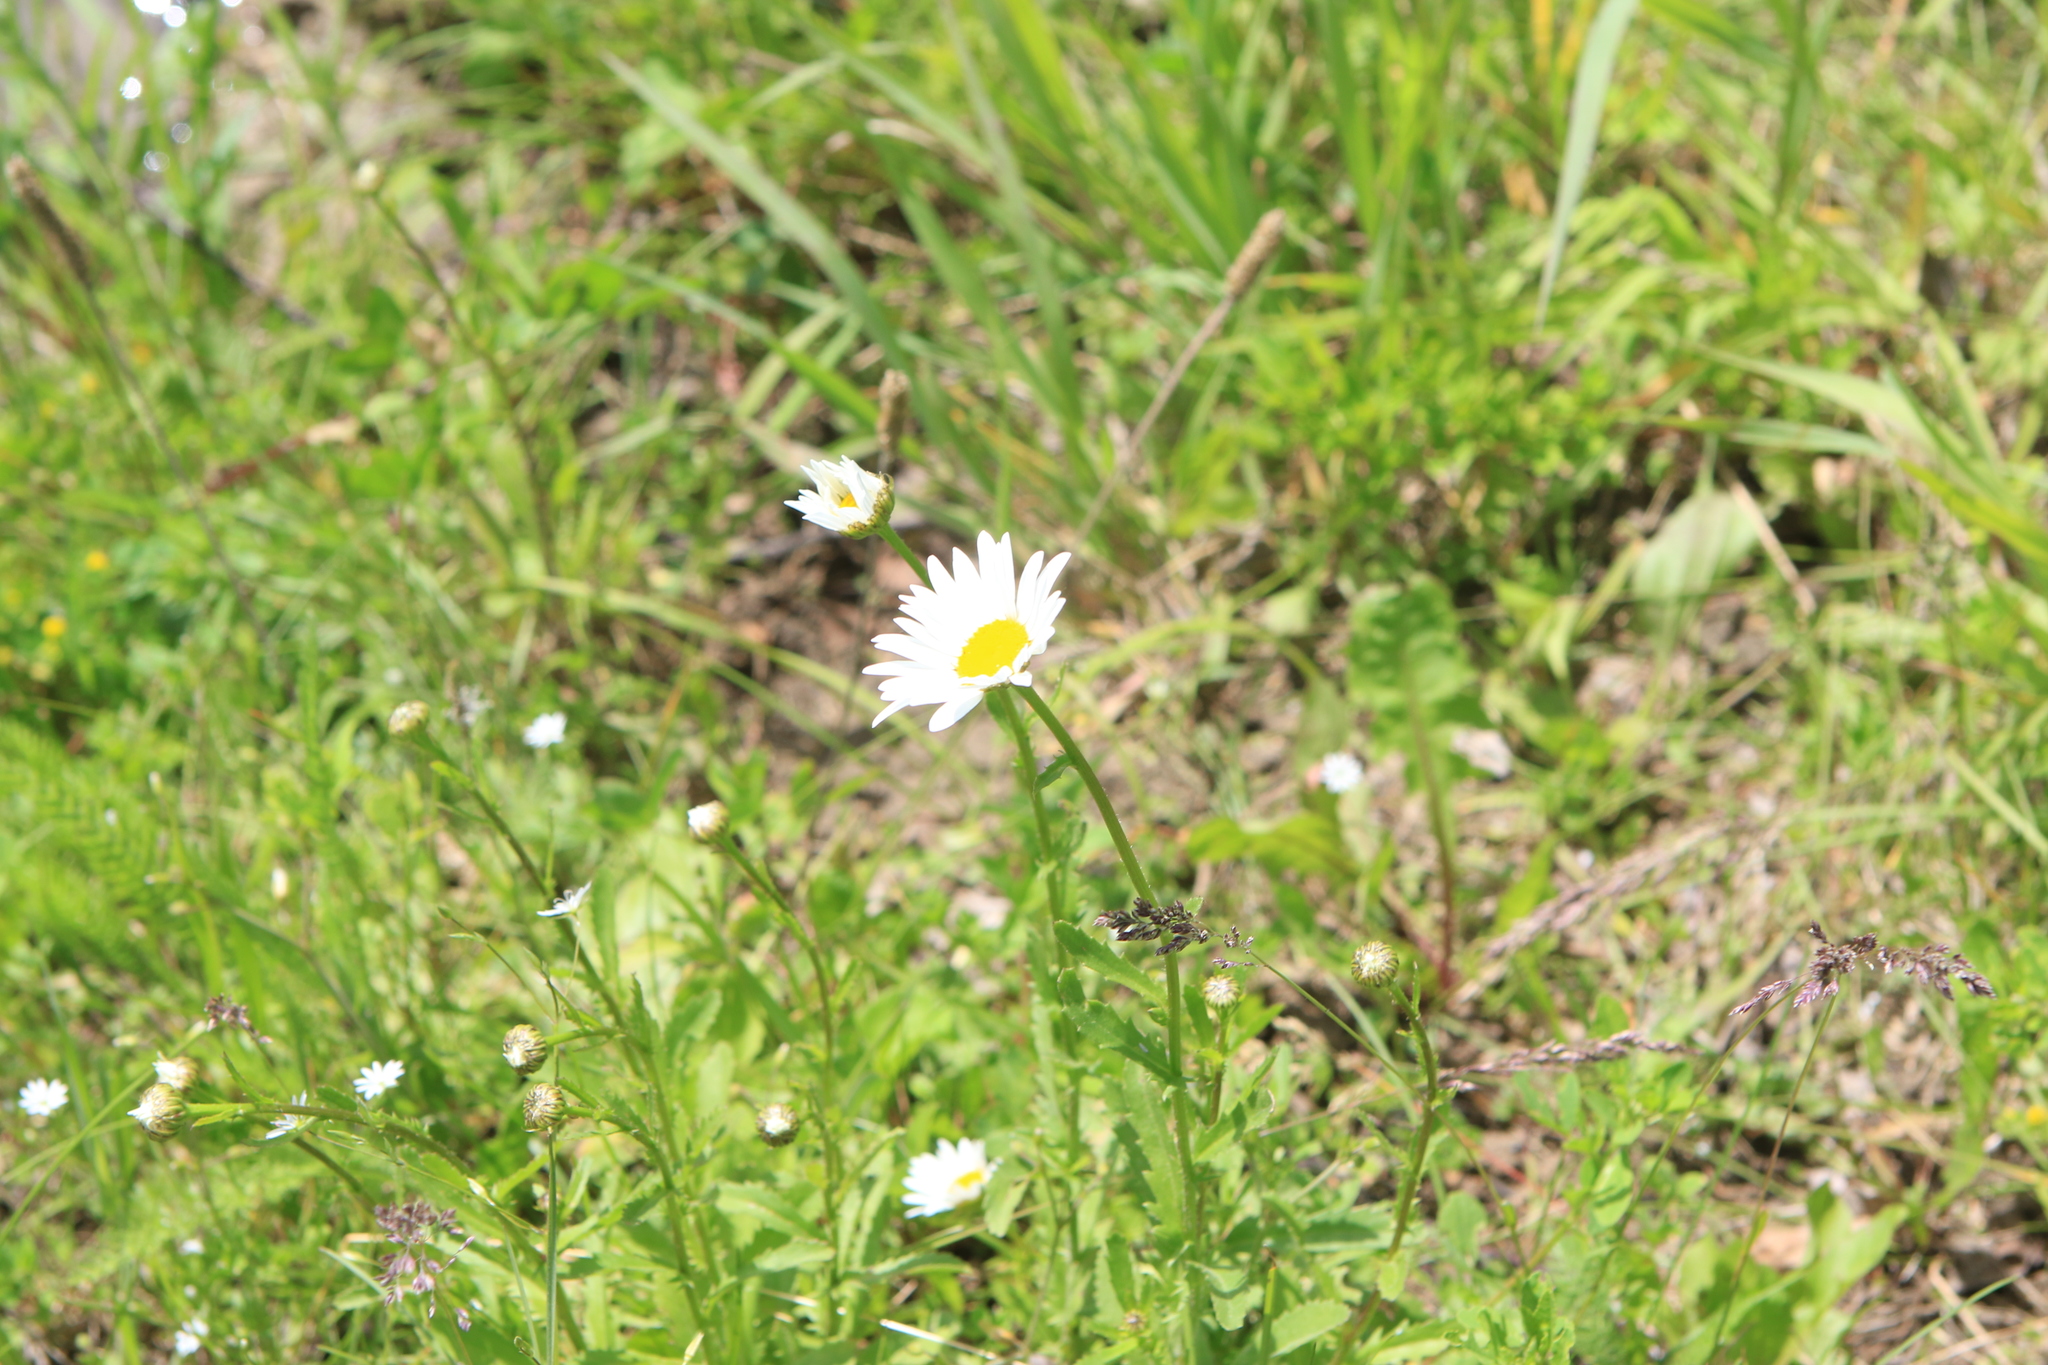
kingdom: Plantae
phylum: Tracheophyta
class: Magnoliopsida
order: Asterales
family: Asteraceae
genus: Leucanthemum
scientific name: Leucanthemum vulgare
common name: Oxeye daisy
